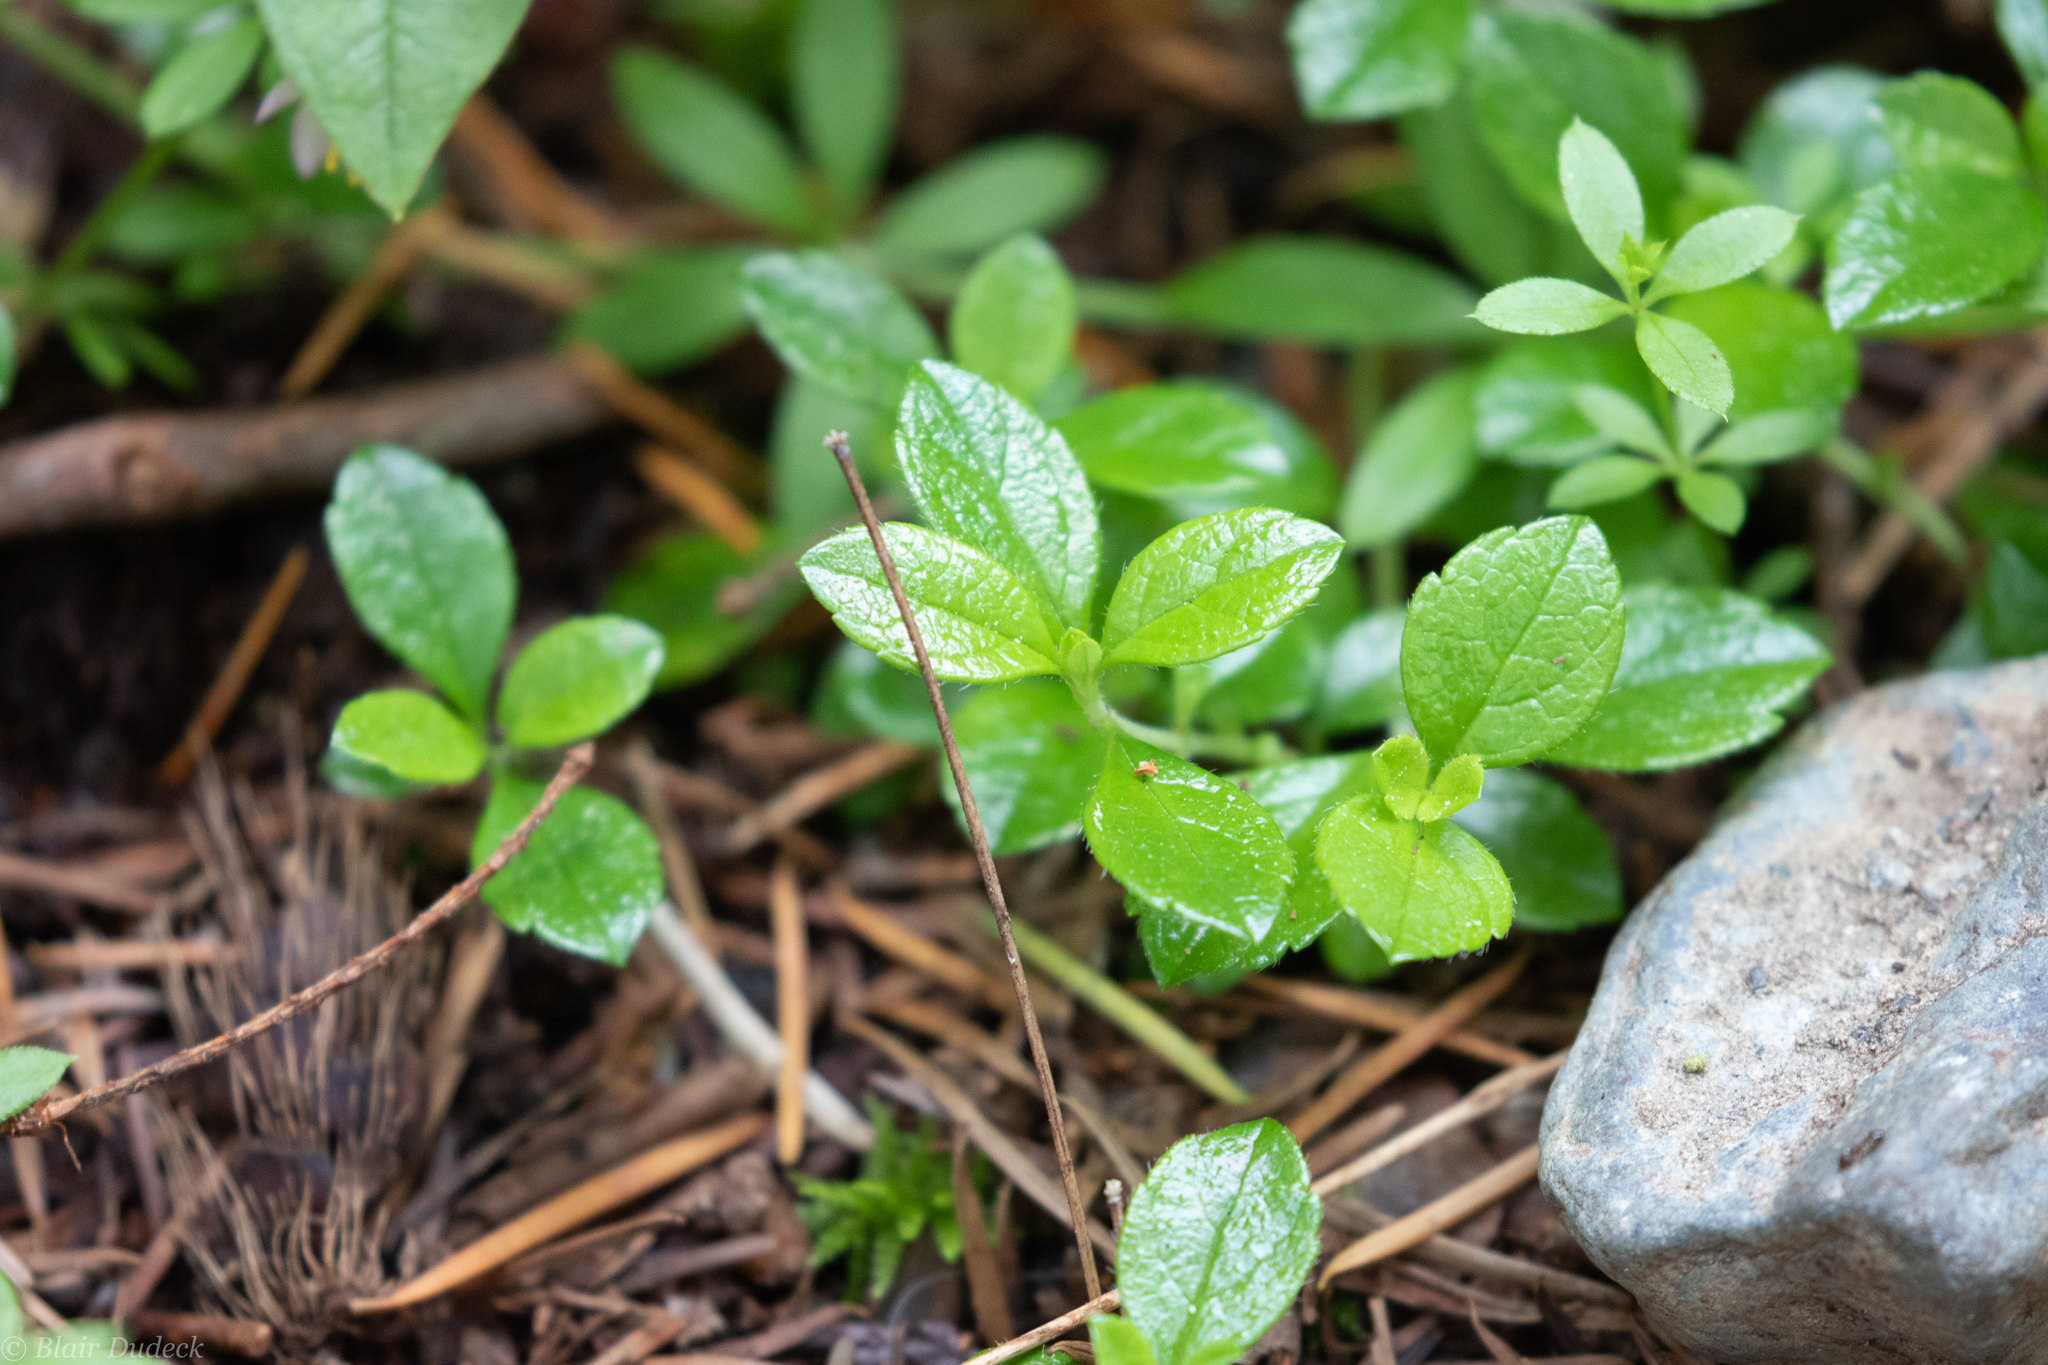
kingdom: Plantae
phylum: Tracheophyta
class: Magnoliopsida
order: Dipsacales
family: Caprifoliaceae
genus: Linnaea
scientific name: Linnaea borealis
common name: Twinflower
